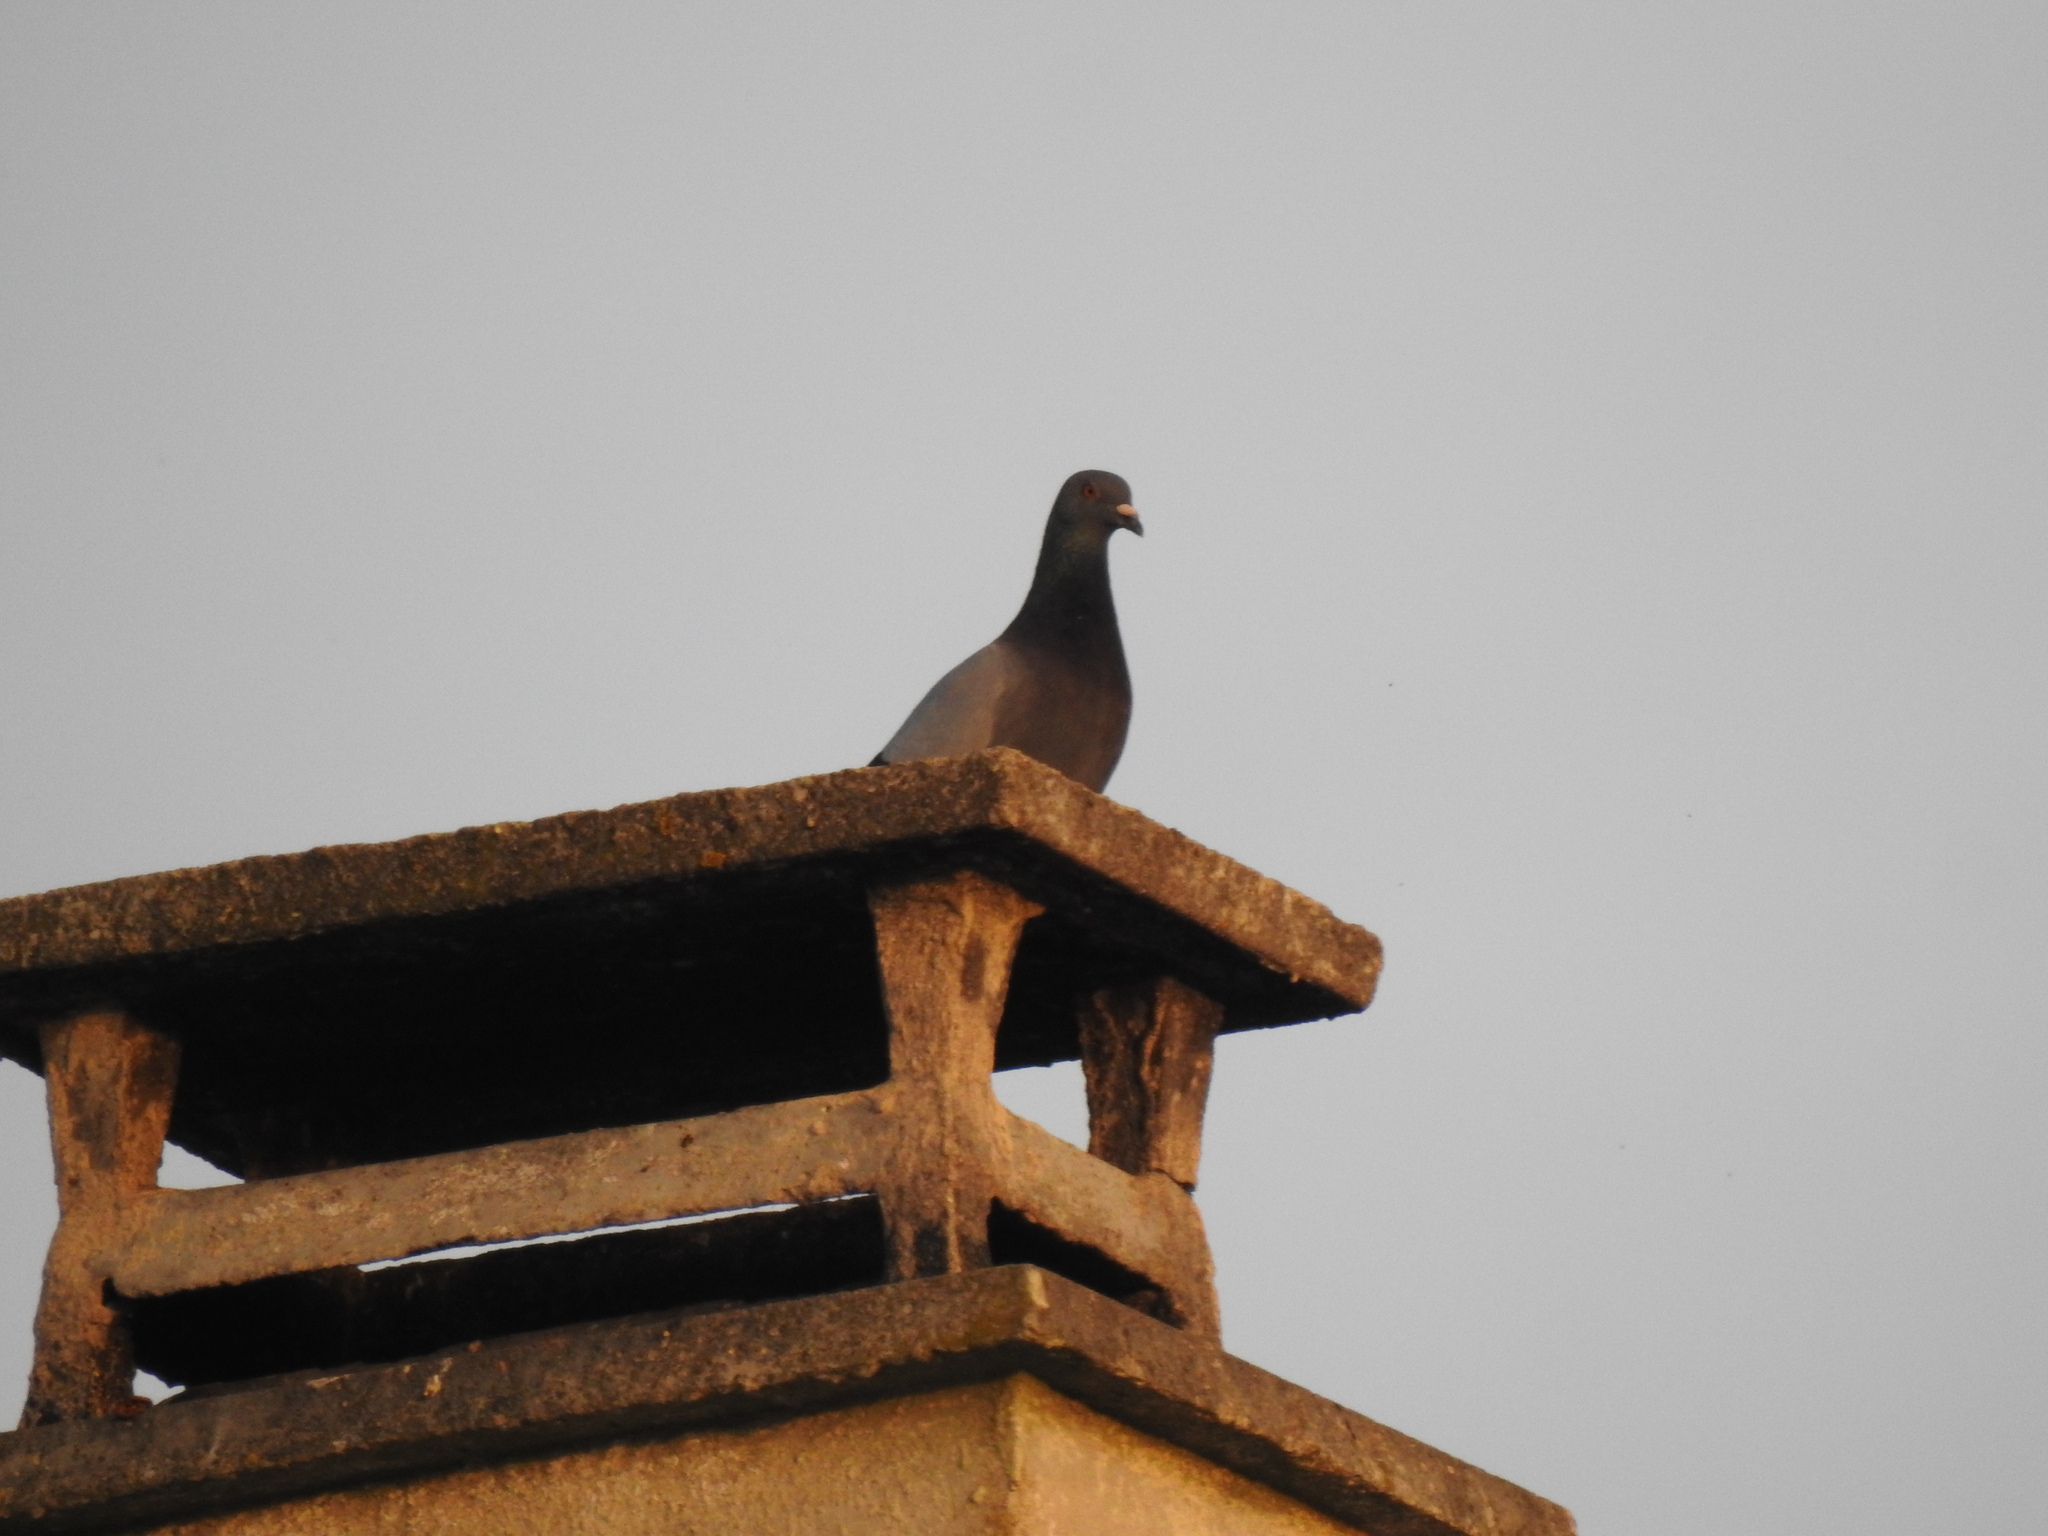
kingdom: Animalia
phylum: Chordata
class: Aves
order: Columbiformes
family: Columbidae
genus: Columba
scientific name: Columba livia
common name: Rock pigeon
